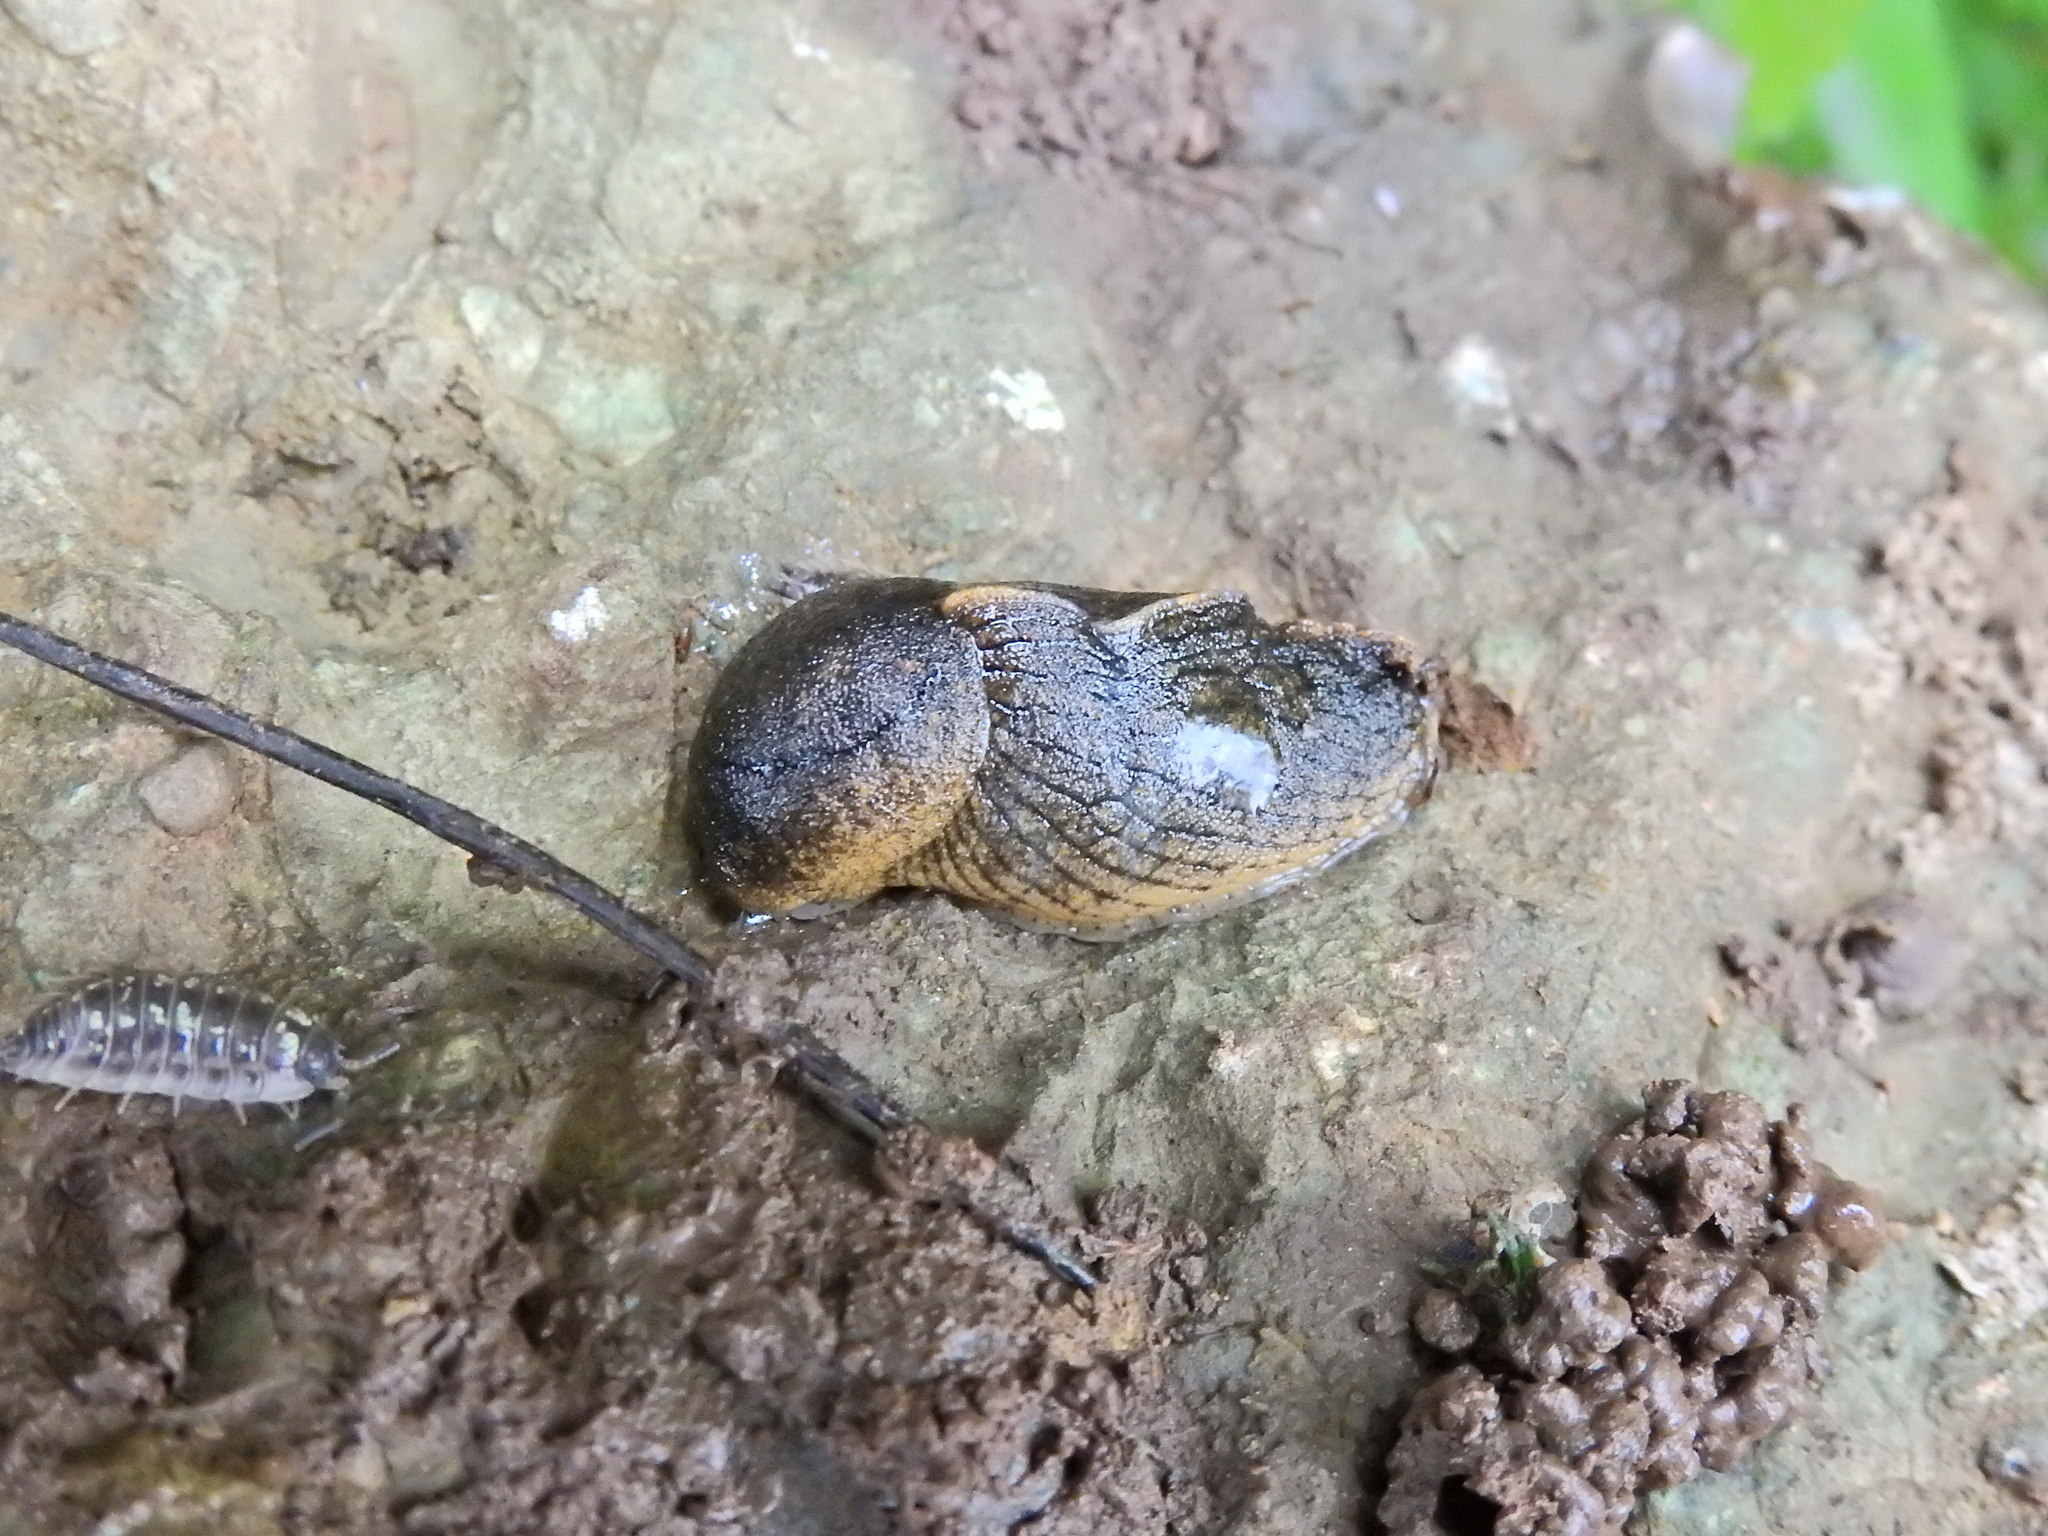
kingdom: Animalia
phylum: Mollusca
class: Gastropoda
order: Stylommatophora
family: Milacidae
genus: Tandonia
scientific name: Tandonia budapestensis
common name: Budapest slug
